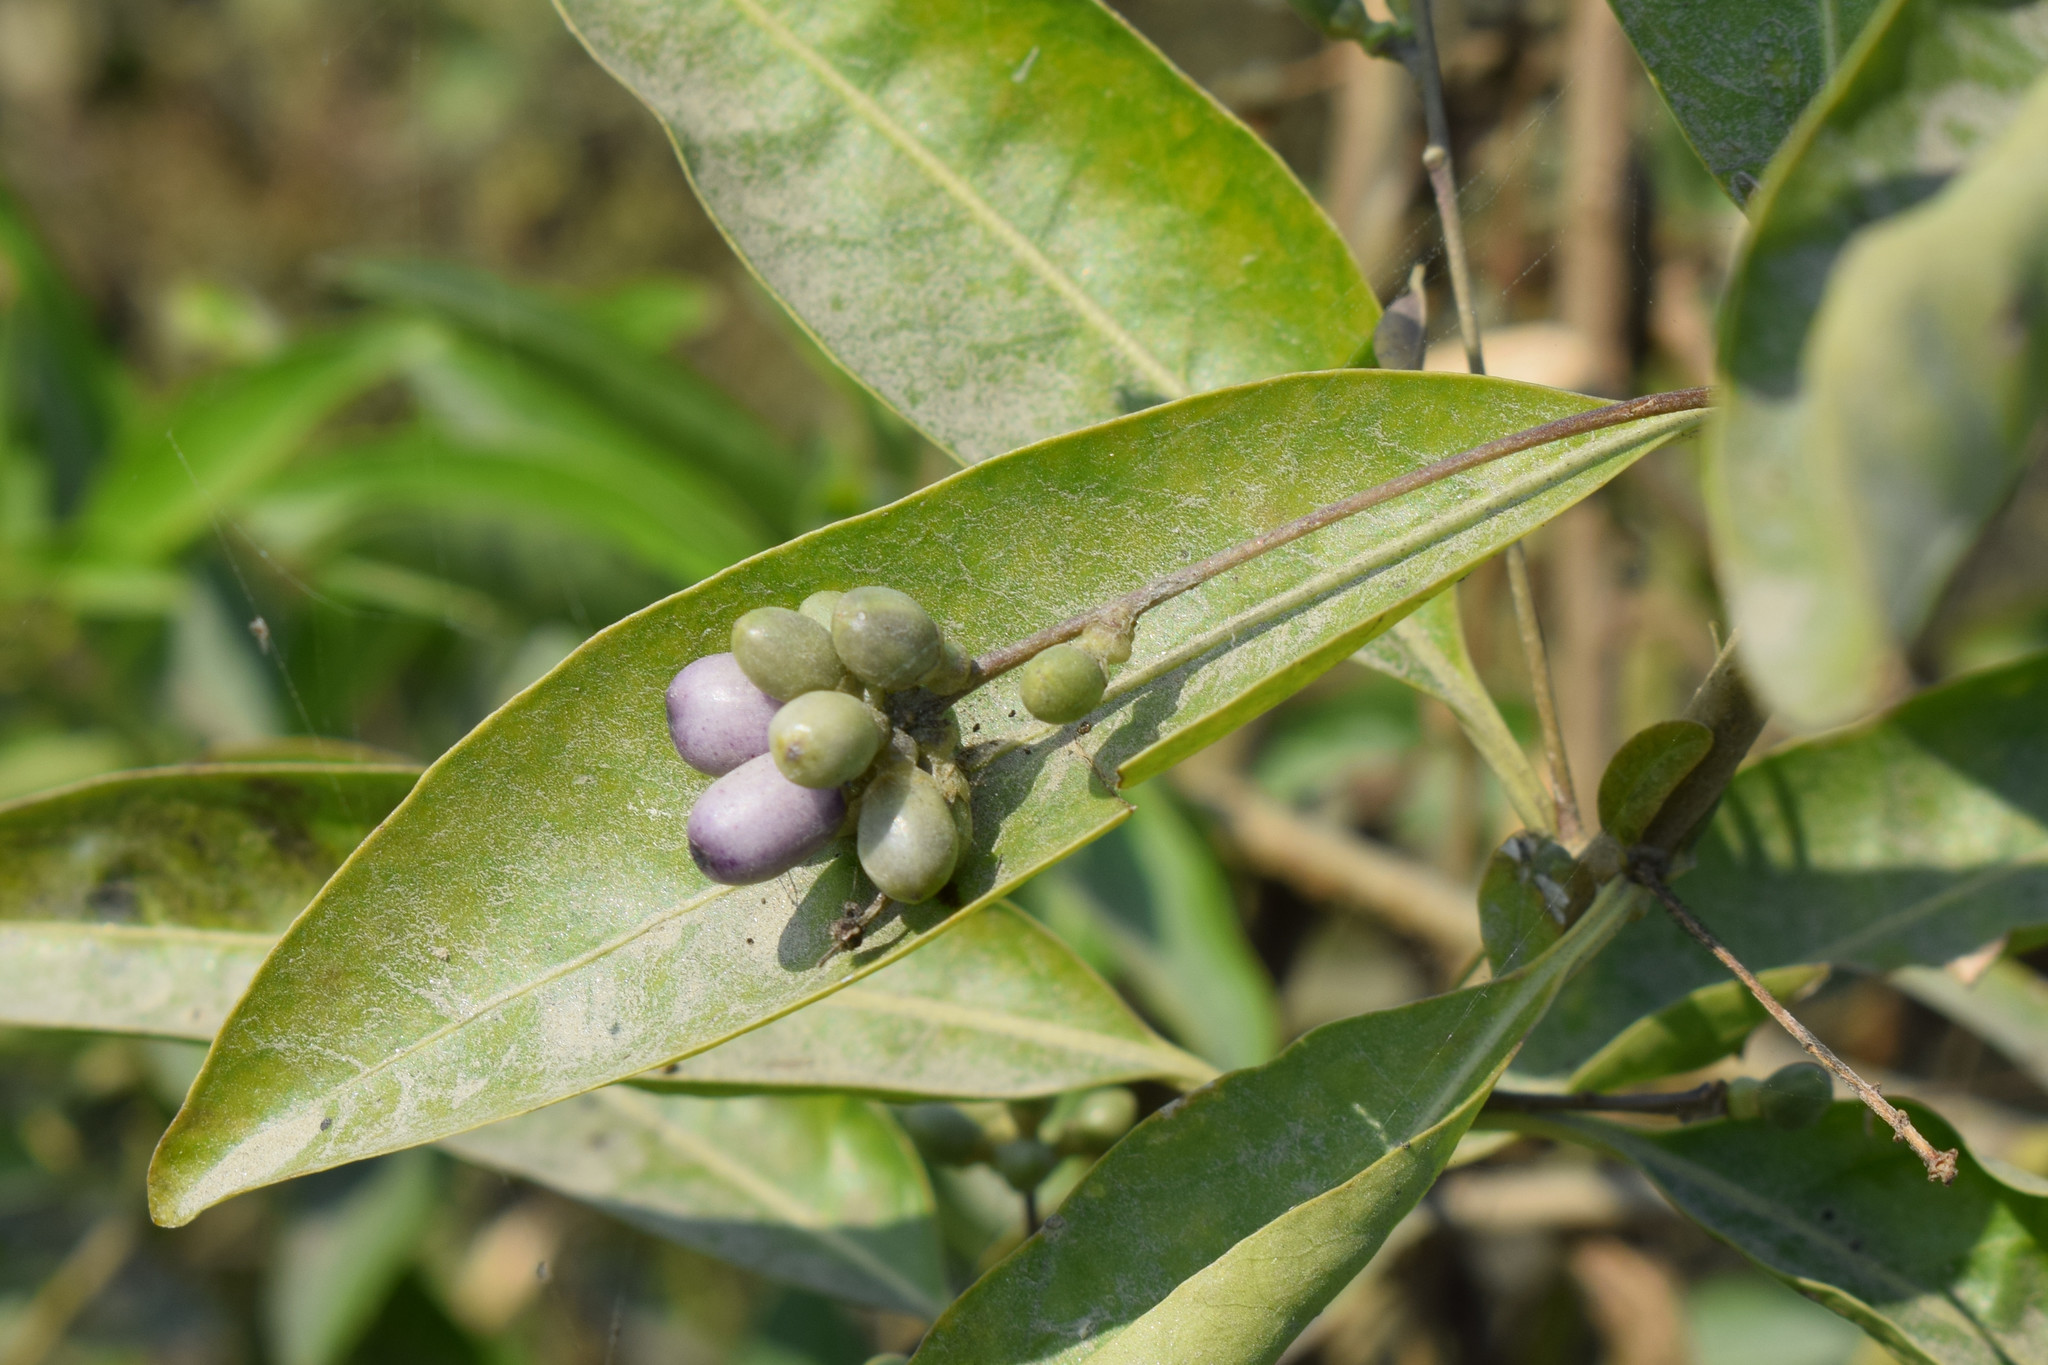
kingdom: Plantae
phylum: Tracheophyta
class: Magnoliopsida
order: Solanales
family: Solanaceae
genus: Cestrum
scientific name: Cestrum diurnum
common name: Day jessamine
